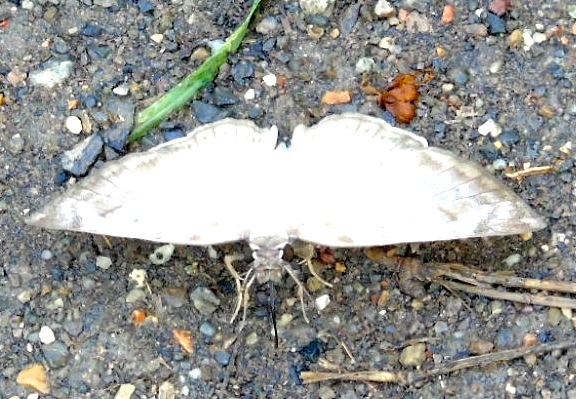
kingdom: Animalia
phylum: Arthropoda
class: Insecta
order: Lepidoptera
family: Hesperiidae
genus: Mylon
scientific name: Mylon pelopidas
